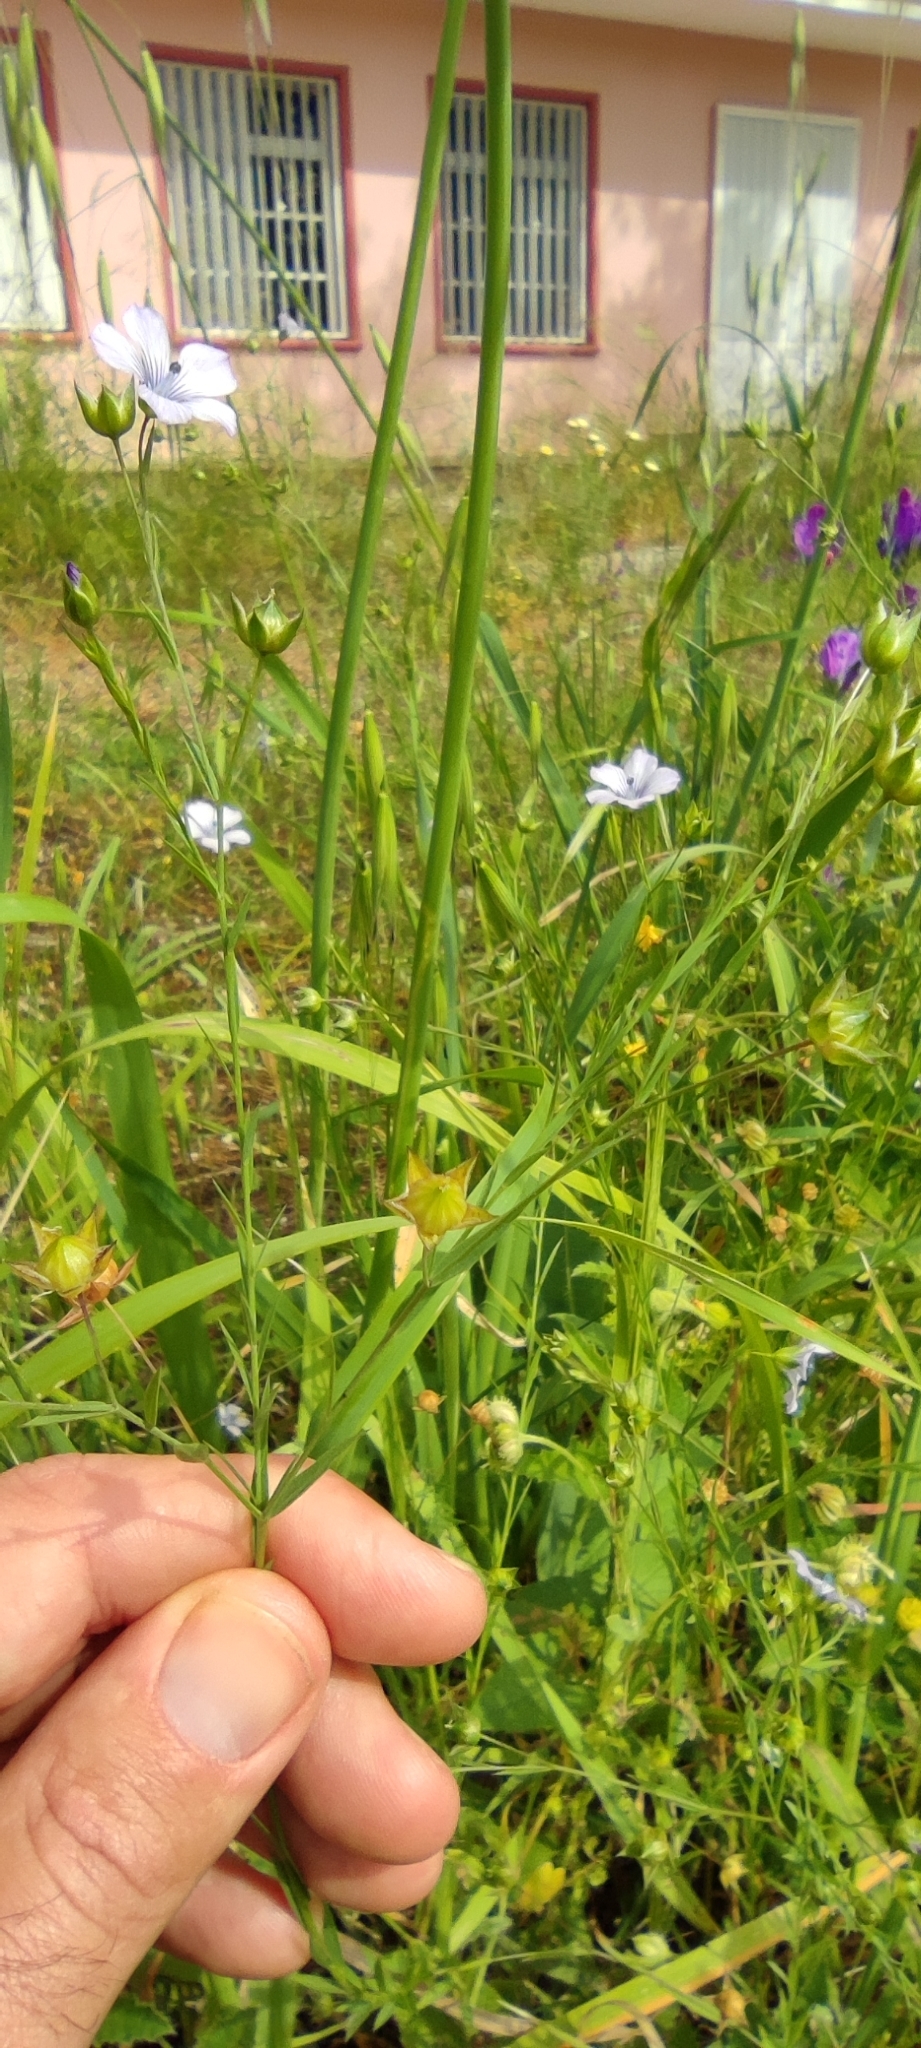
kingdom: Plantae
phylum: Tracheophyta
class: Magnoliopsida
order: Malpighiales
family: Linaceae
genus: Linum
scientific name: Linum bienne
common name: Pale flax
